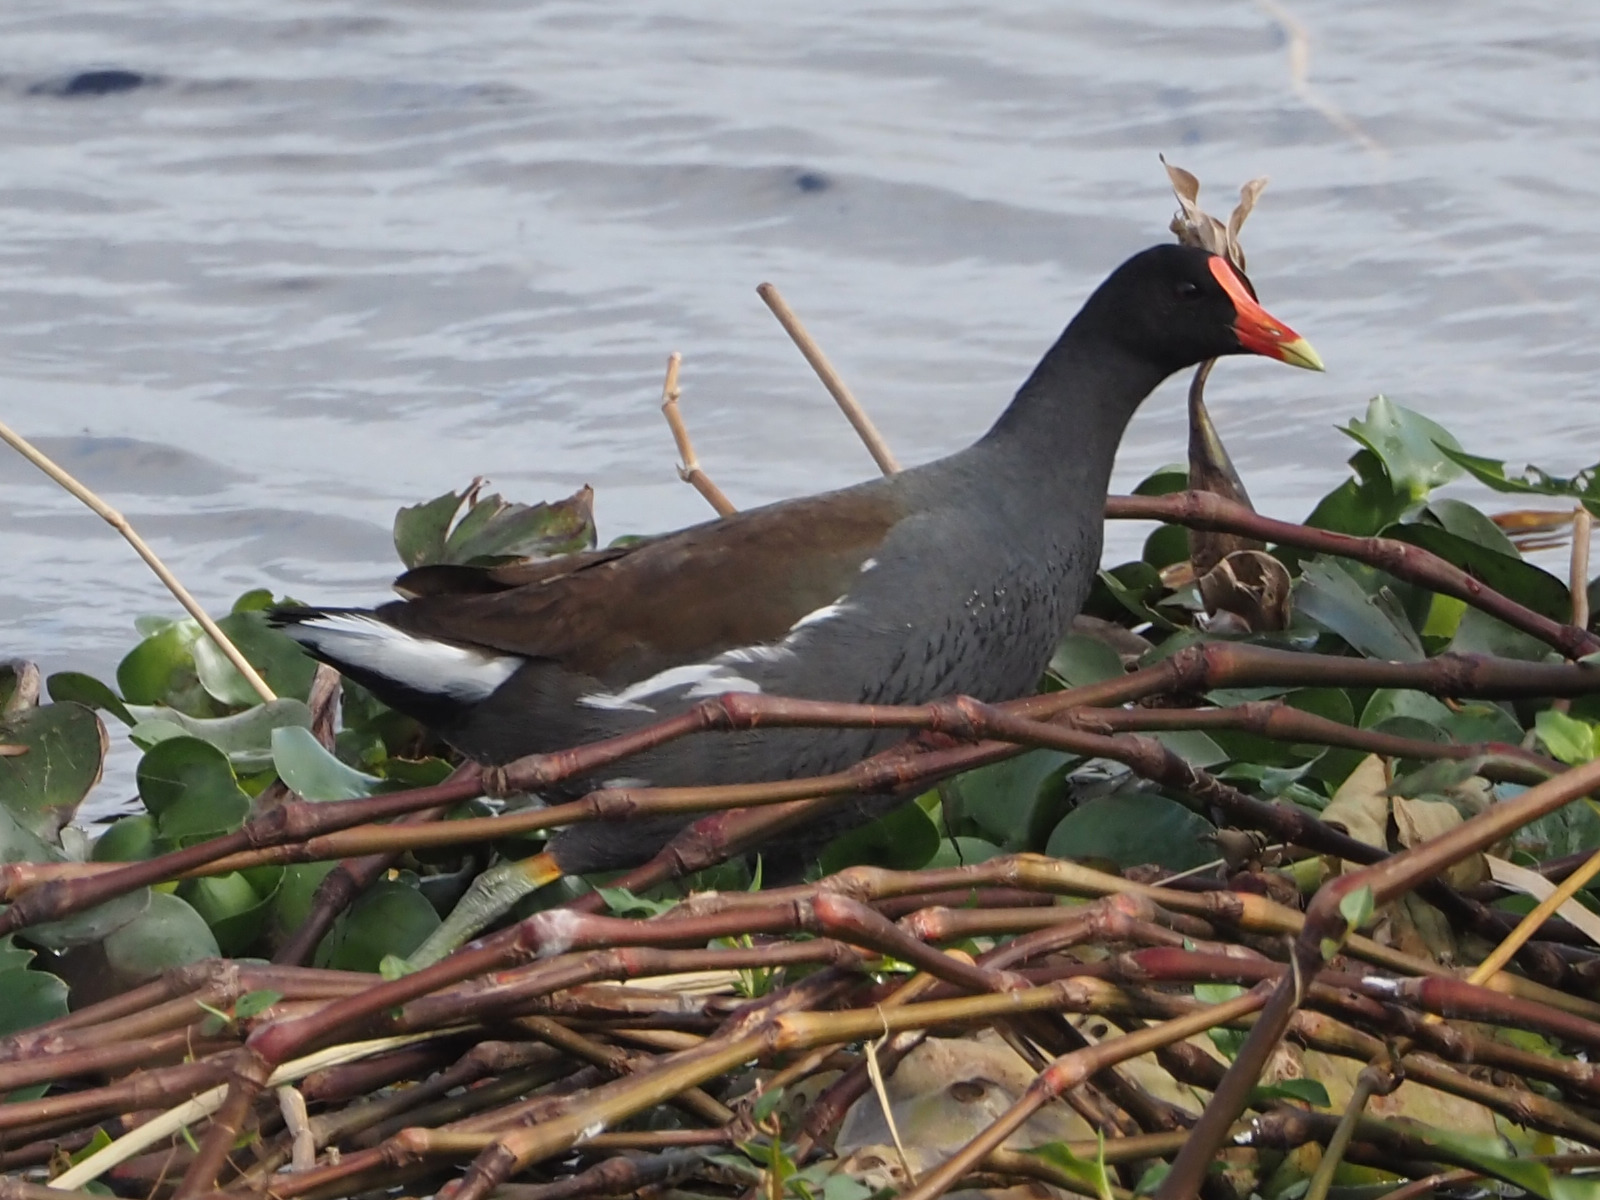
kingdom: Animalia
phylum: Chordata
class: Aves
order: Gruiformes
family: Rallidae
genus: Gallinula
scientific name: Gallinula chloropus
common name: Common moorhen
